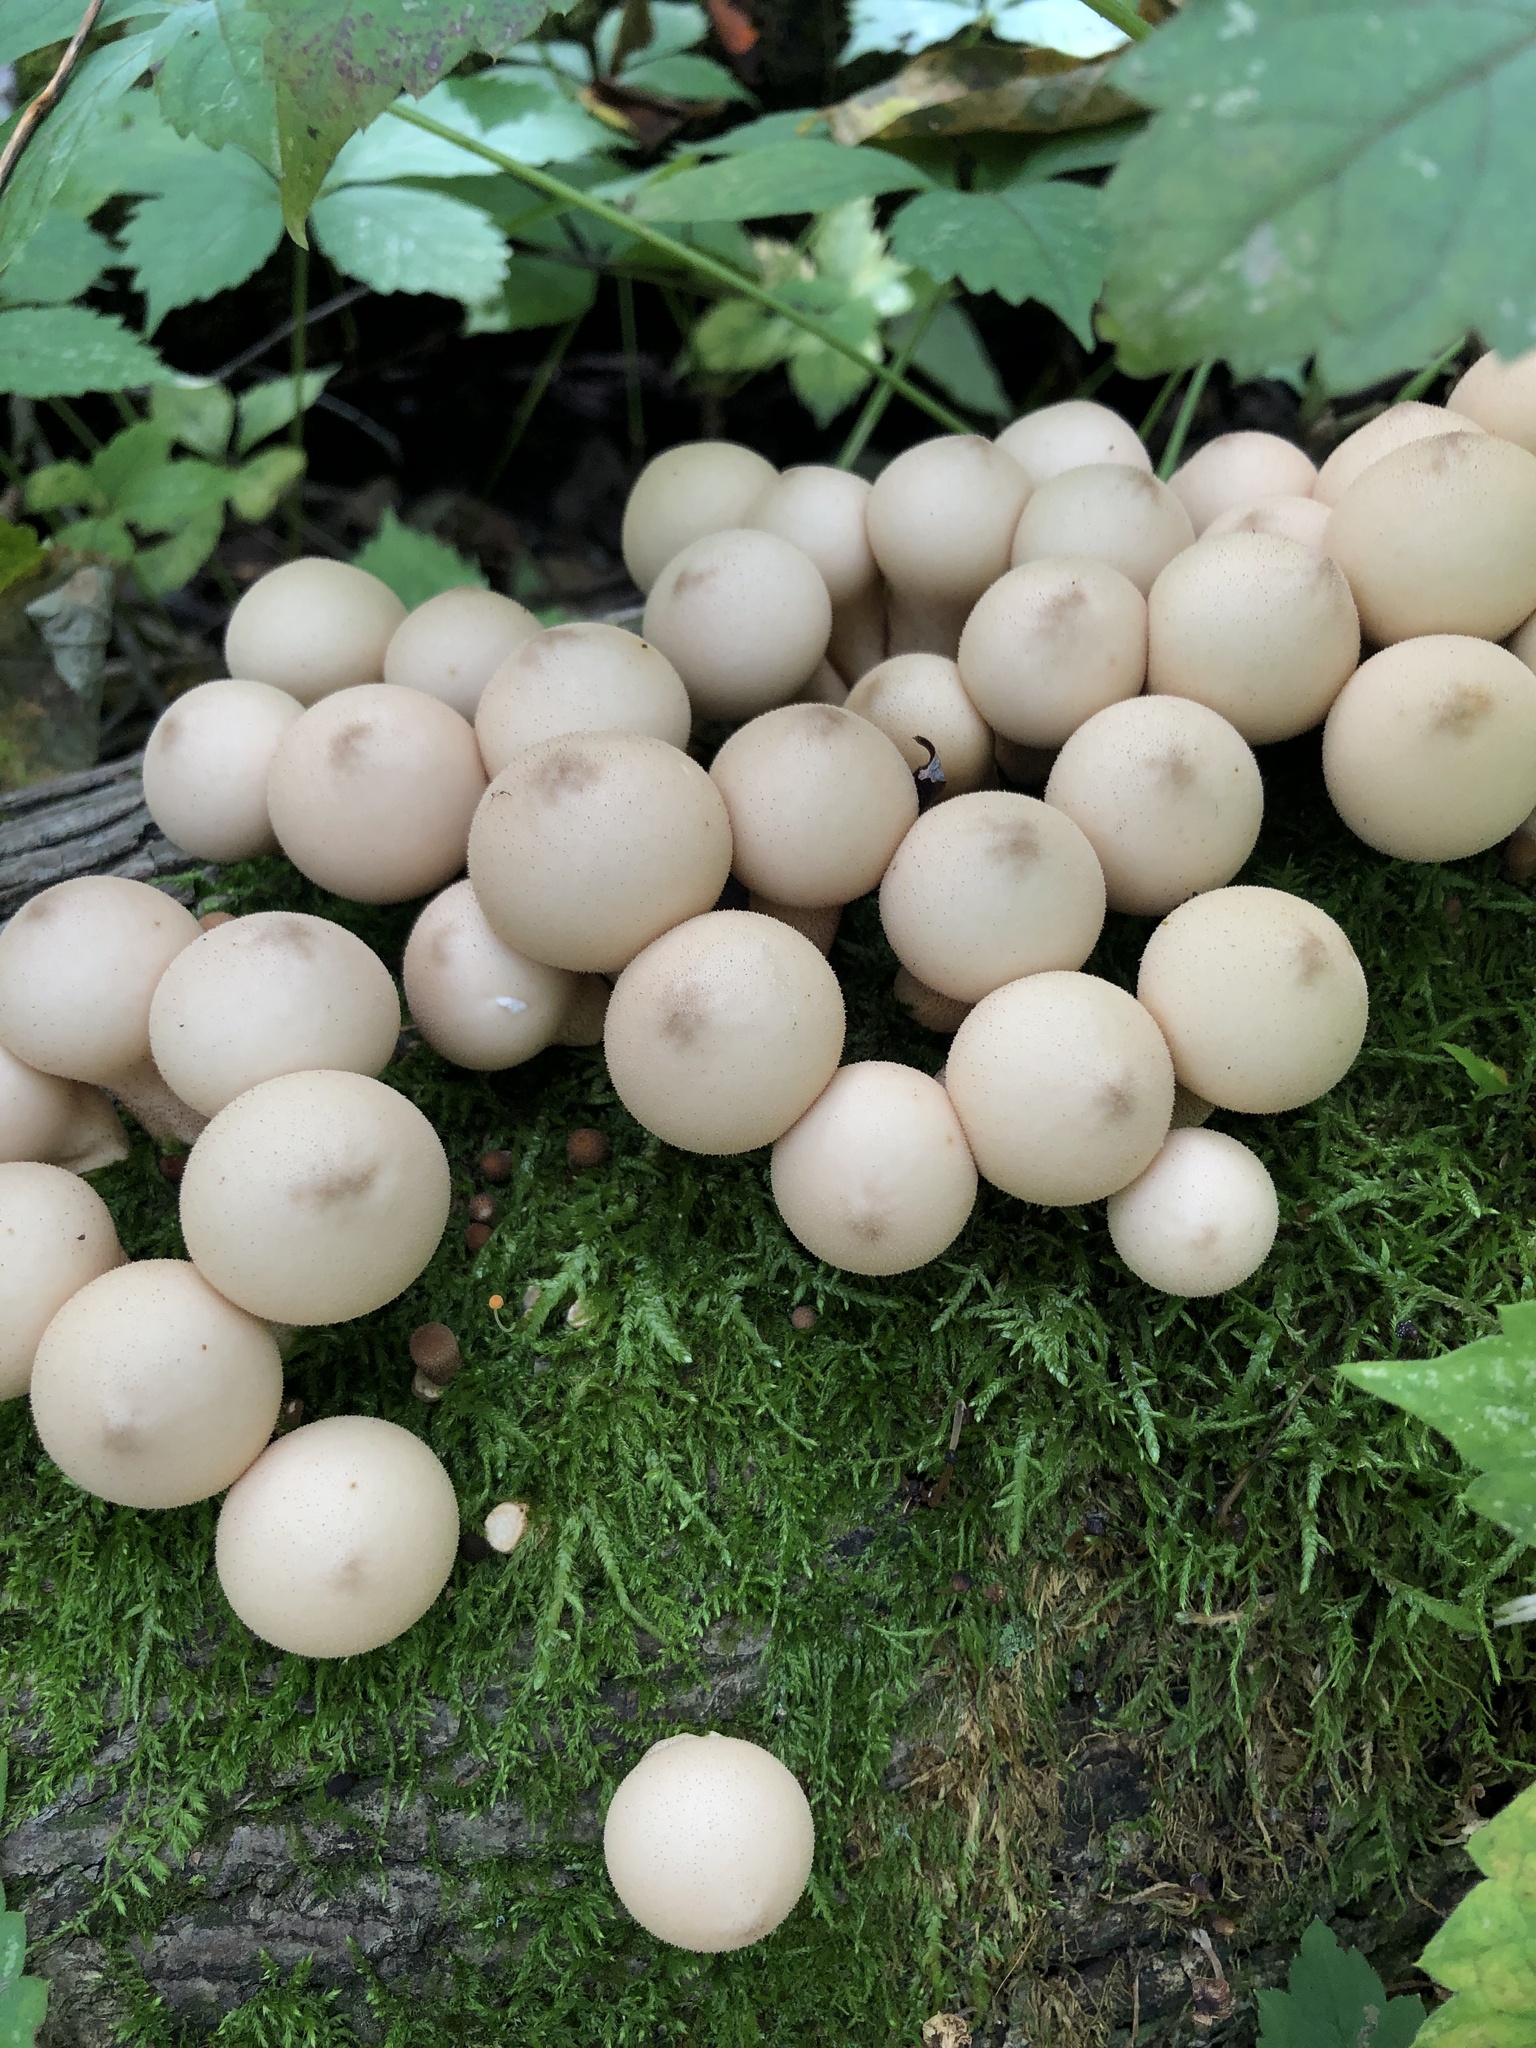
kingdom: Fungi
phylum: Basidiomycota
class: Agaricomycetes
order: Agaricales
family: Lycoperdaceae
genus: Apioperdon
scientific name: Apioperdon pyriforme
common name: Pear-shaped puffball
